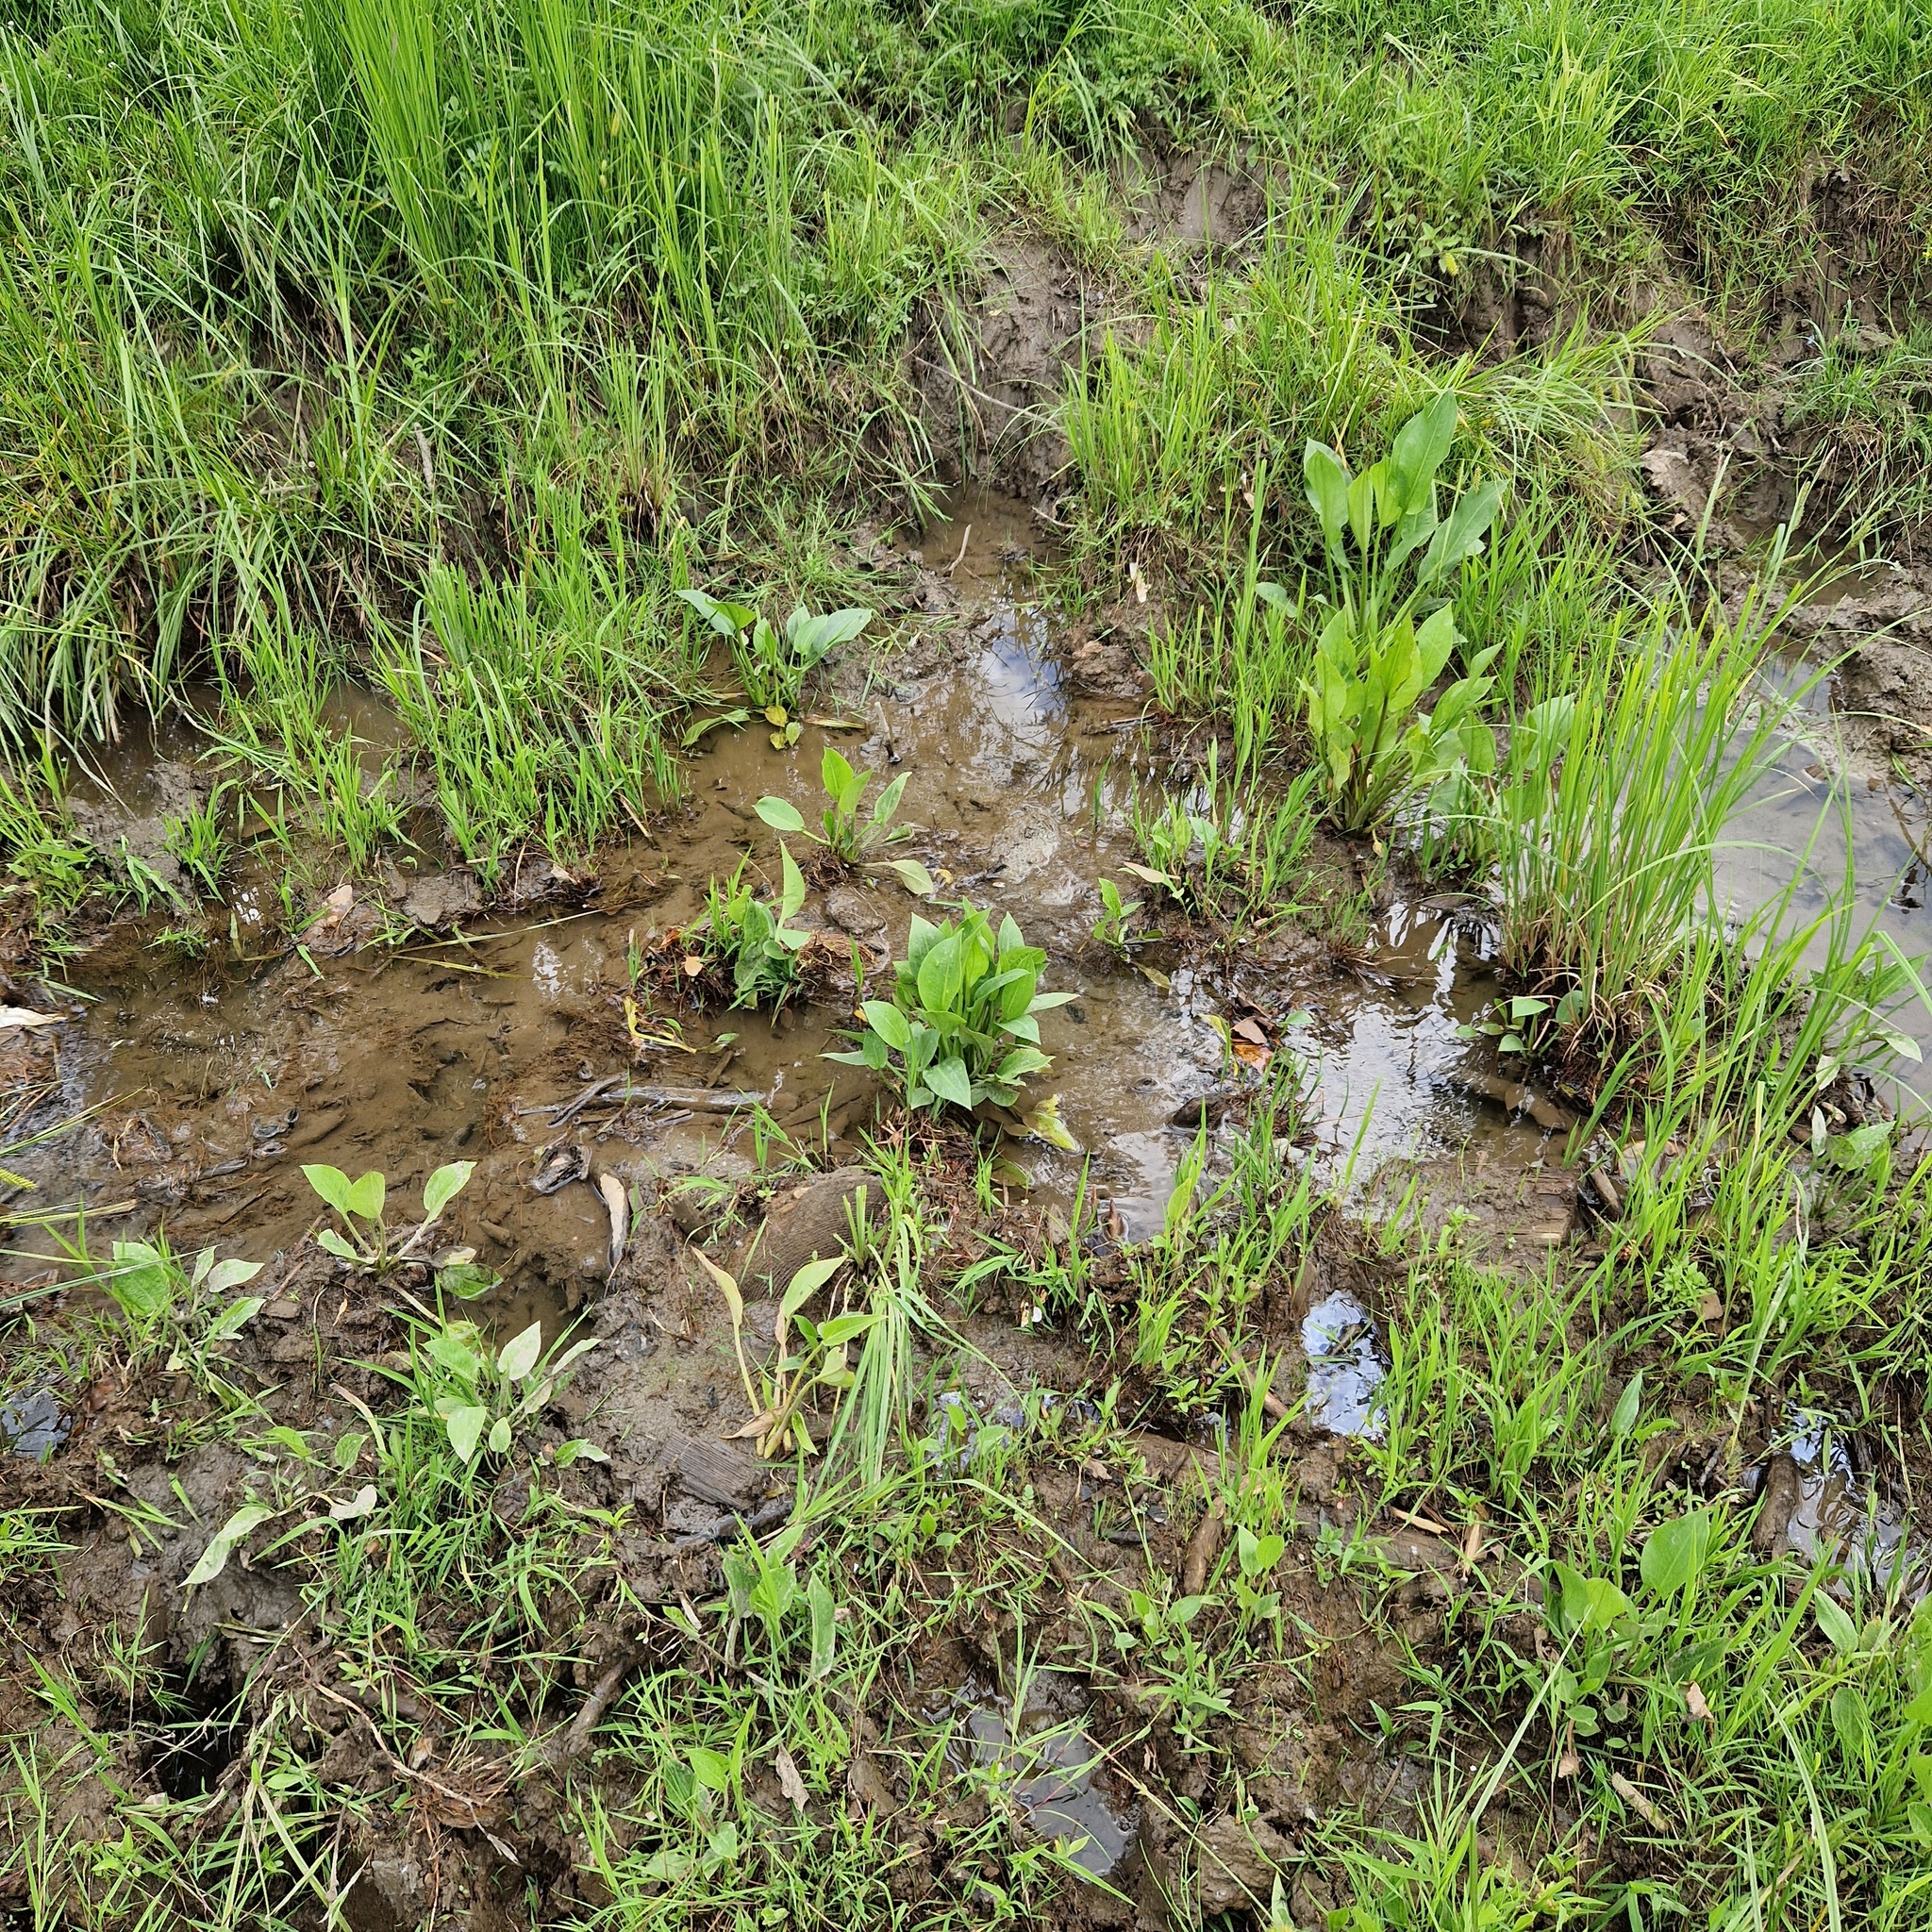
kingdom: Plantae
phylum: Tracheophyta
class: Liliopsida
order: Alismatales
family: Alismataceae
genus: Alisma
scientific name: Alisma plantago-aquatica
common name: Water-plantain
